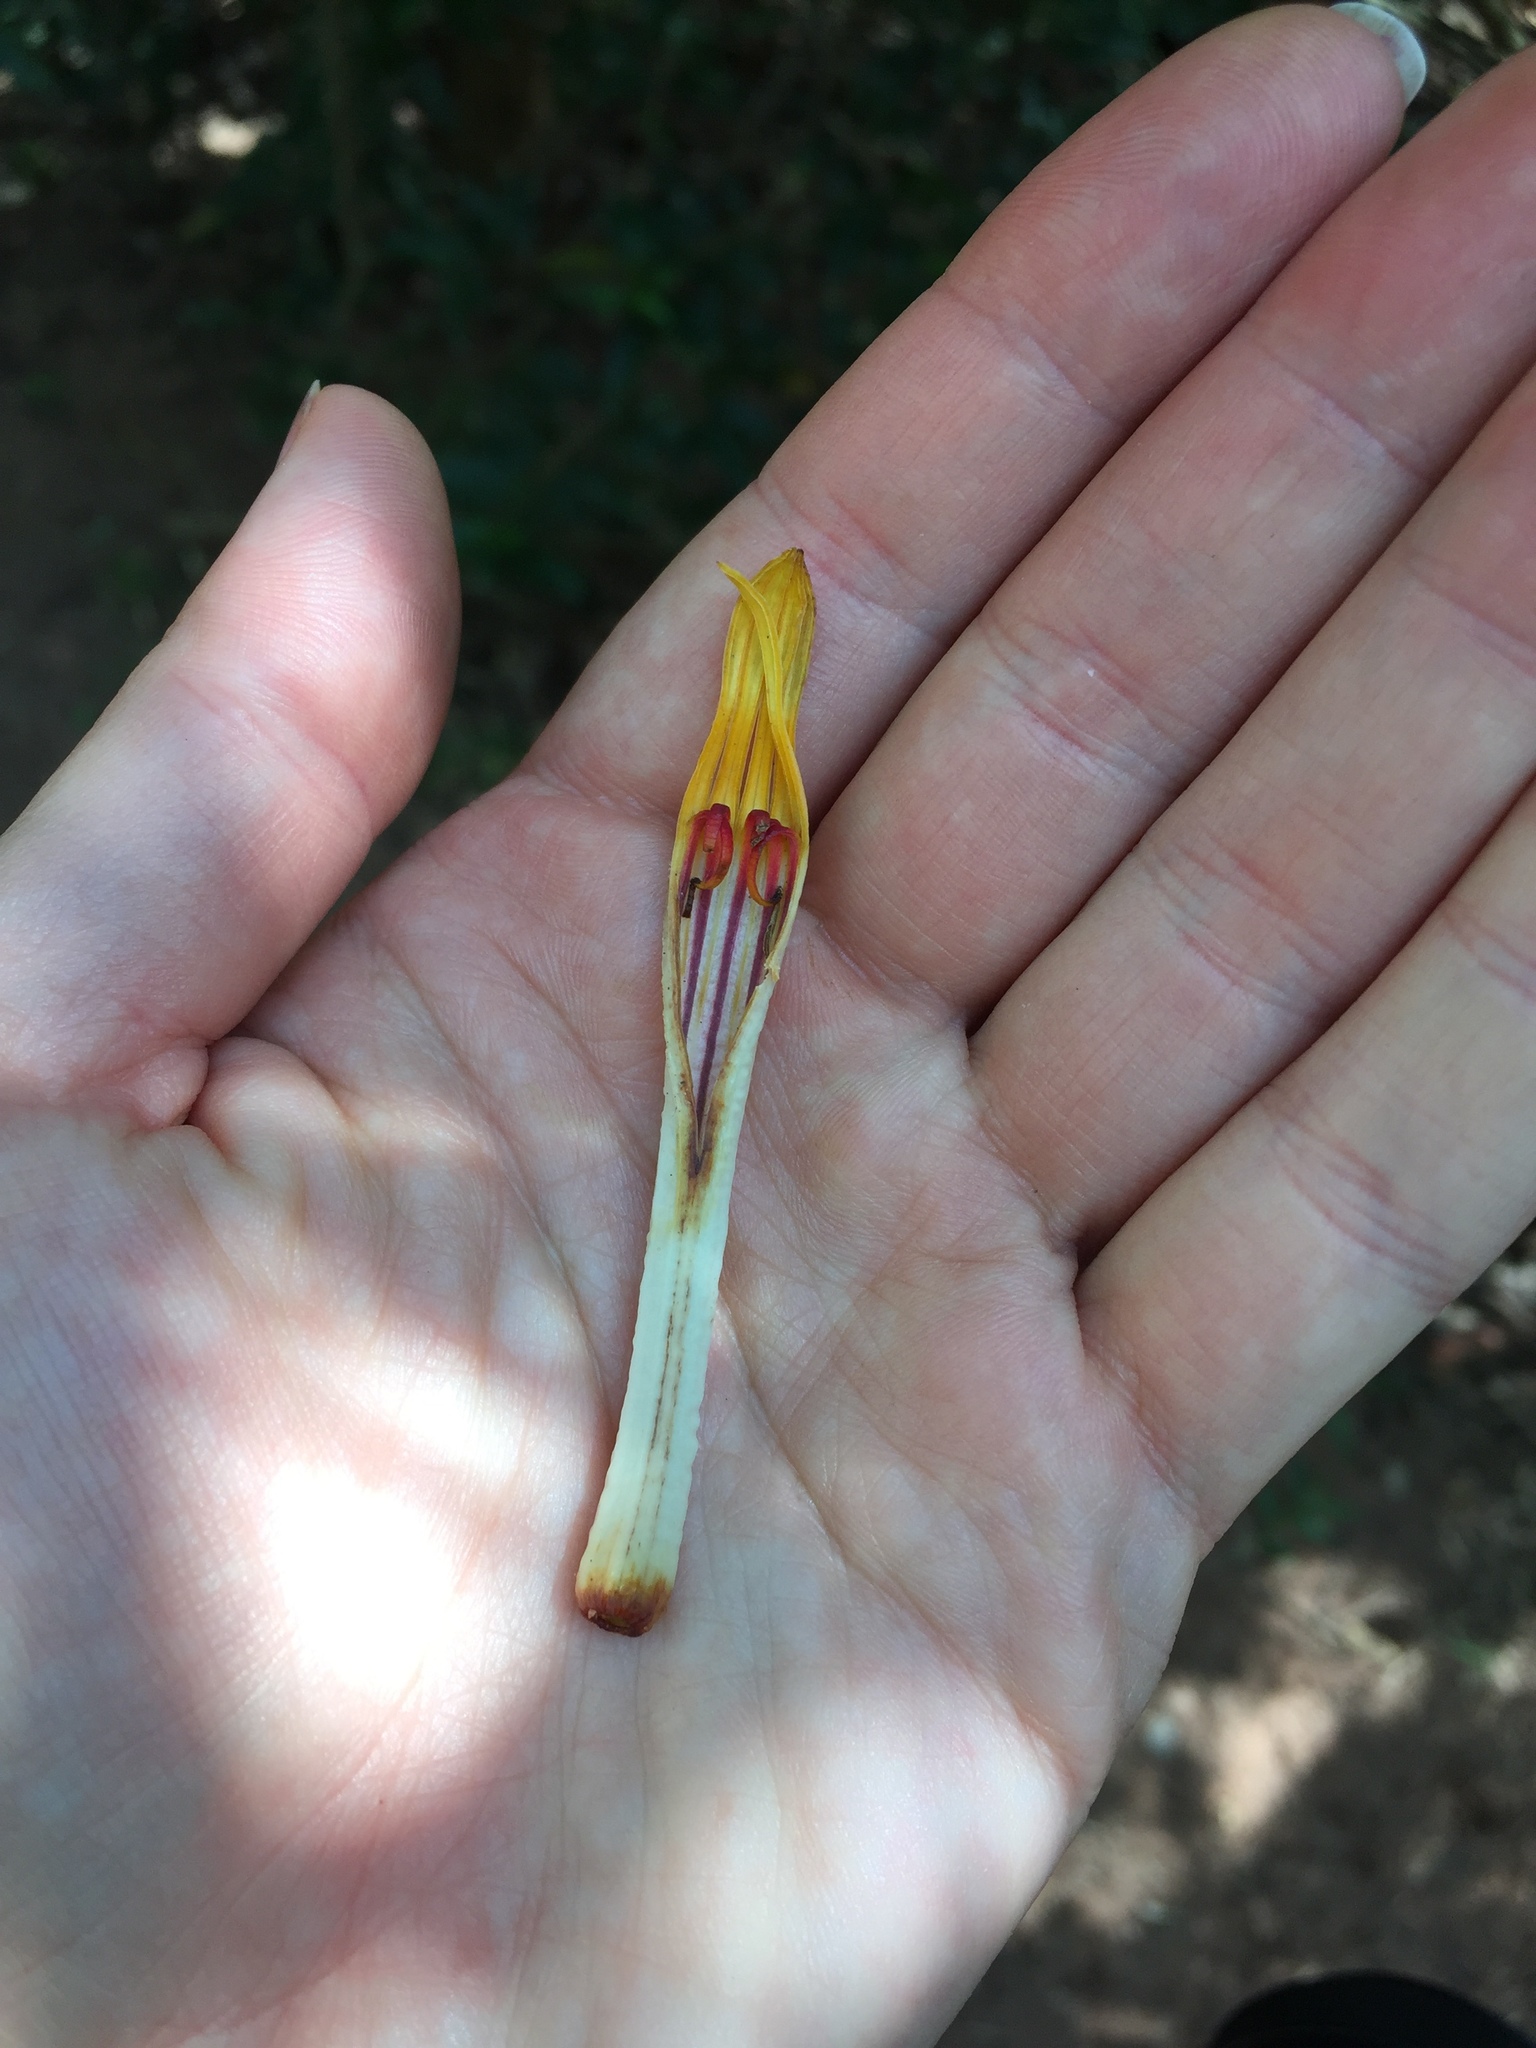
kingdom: Plantae
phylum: Tracheophyta
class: Magnoliopsida
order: Santalales
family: Loranthaceae
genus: Agelanthus
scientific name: Agelanthus natalitius
